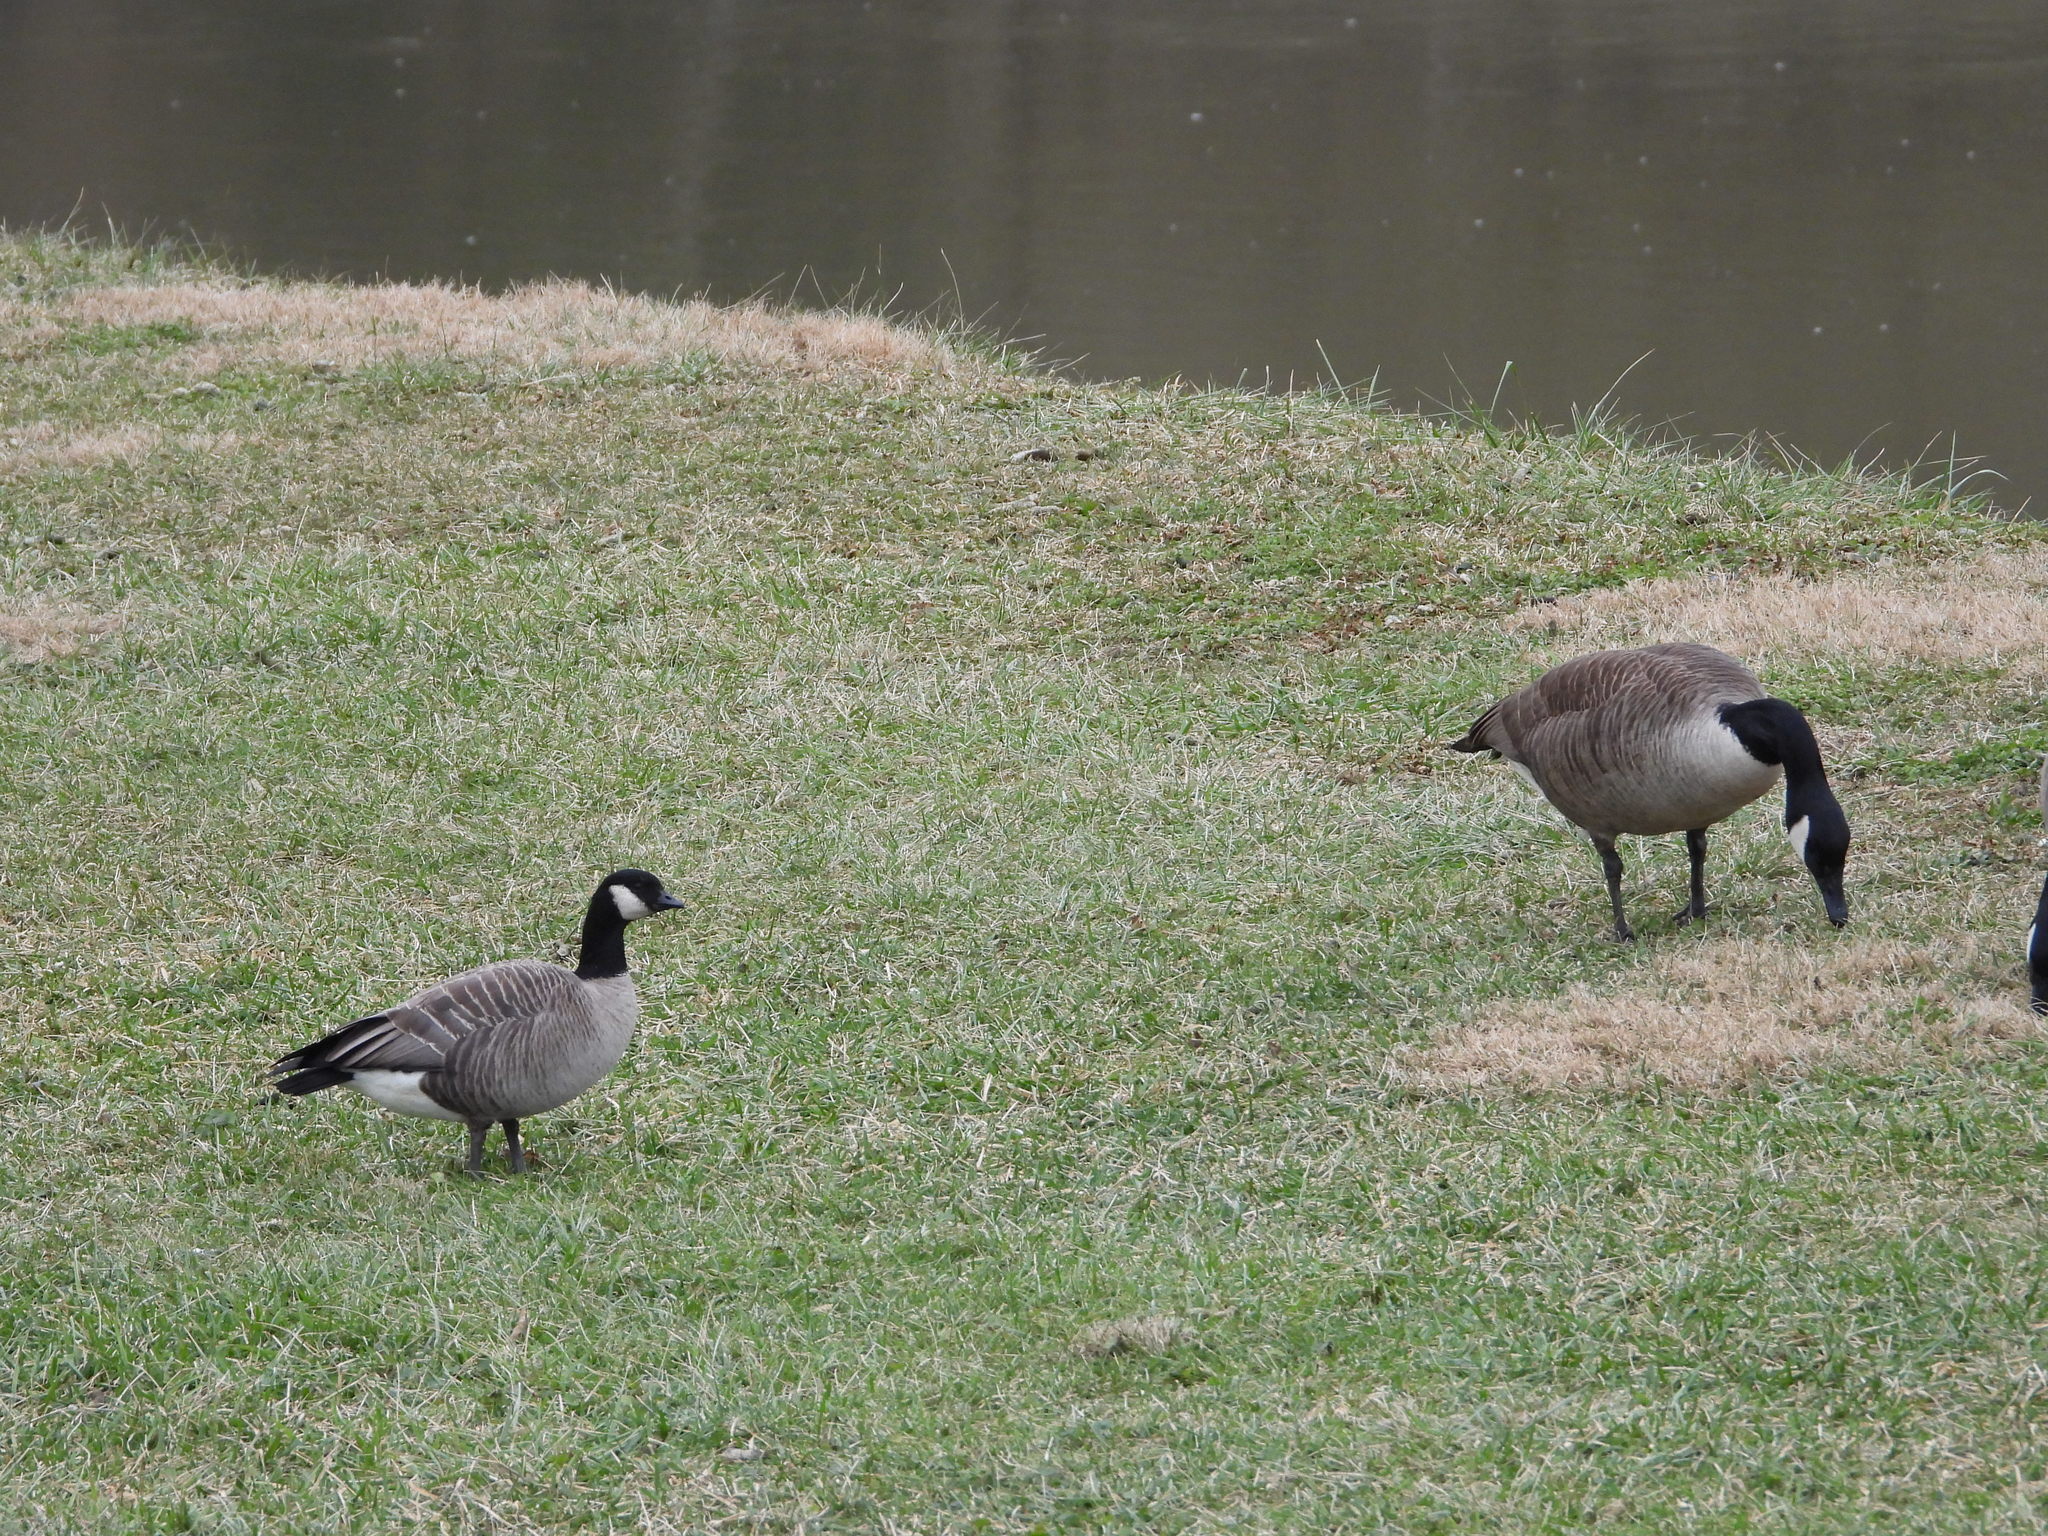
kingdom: Animalia
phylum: Chordata
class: Aves
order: Anseriformes
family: Anatidae
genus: Branta
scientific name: Branta hutchinsii
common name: Cackling goose
